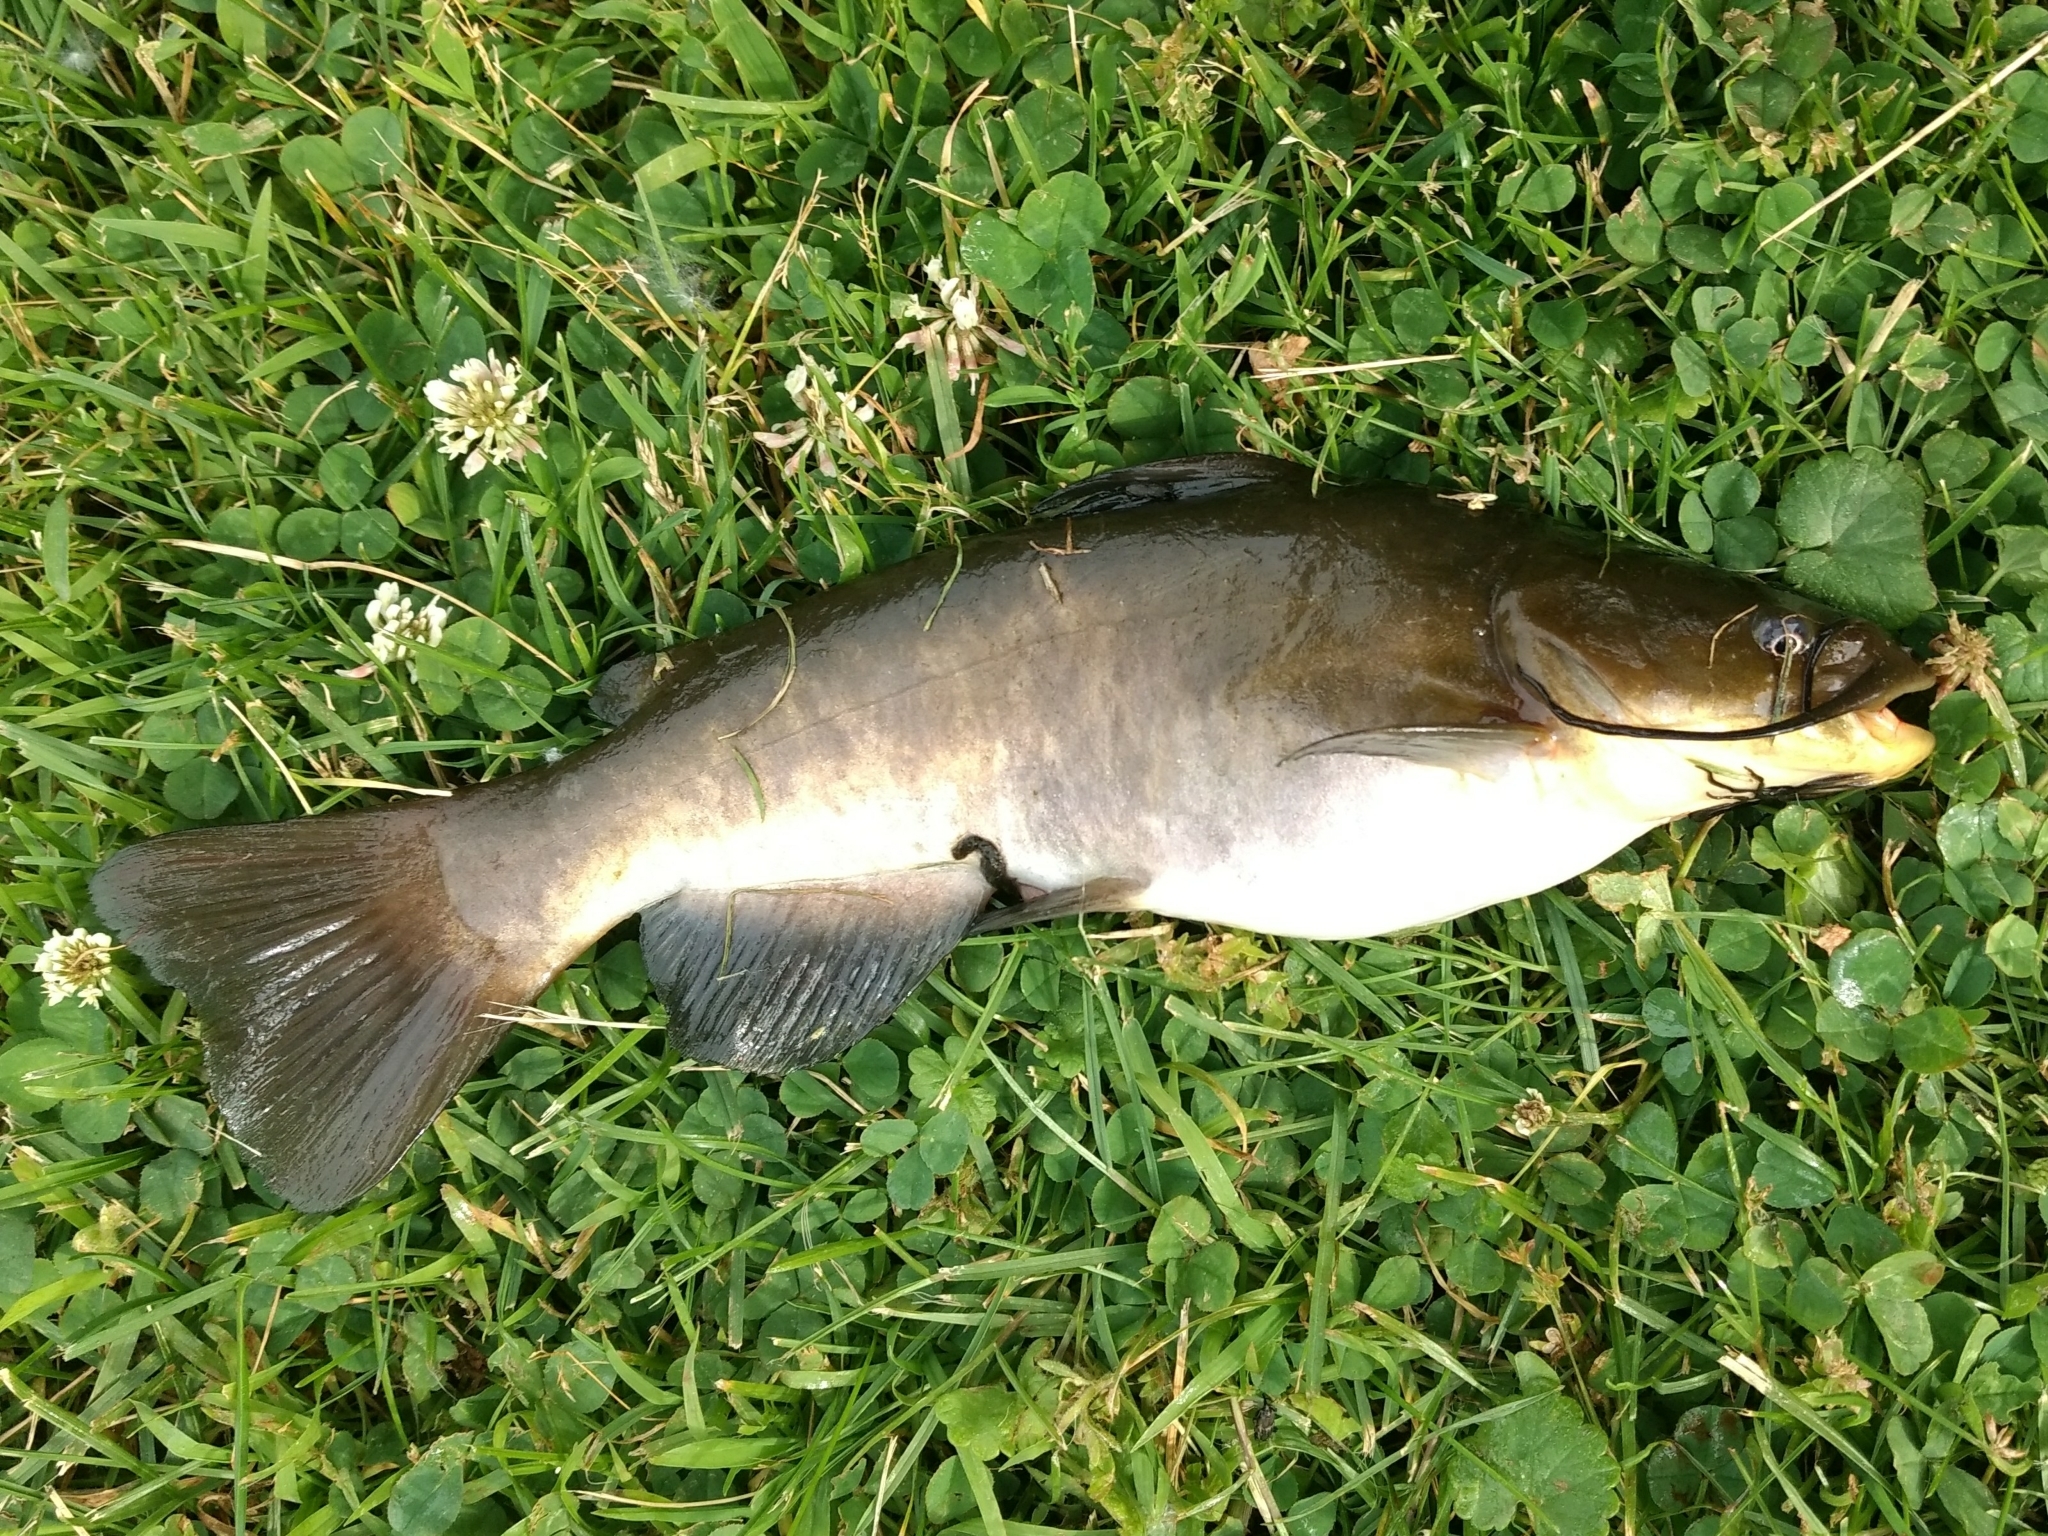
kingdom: Animalia
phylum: Chordata
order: Siluriformes
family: Ictaluridae
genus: Ameiurus
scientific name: Ameiurus nebulosus
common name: Brown bullhead
